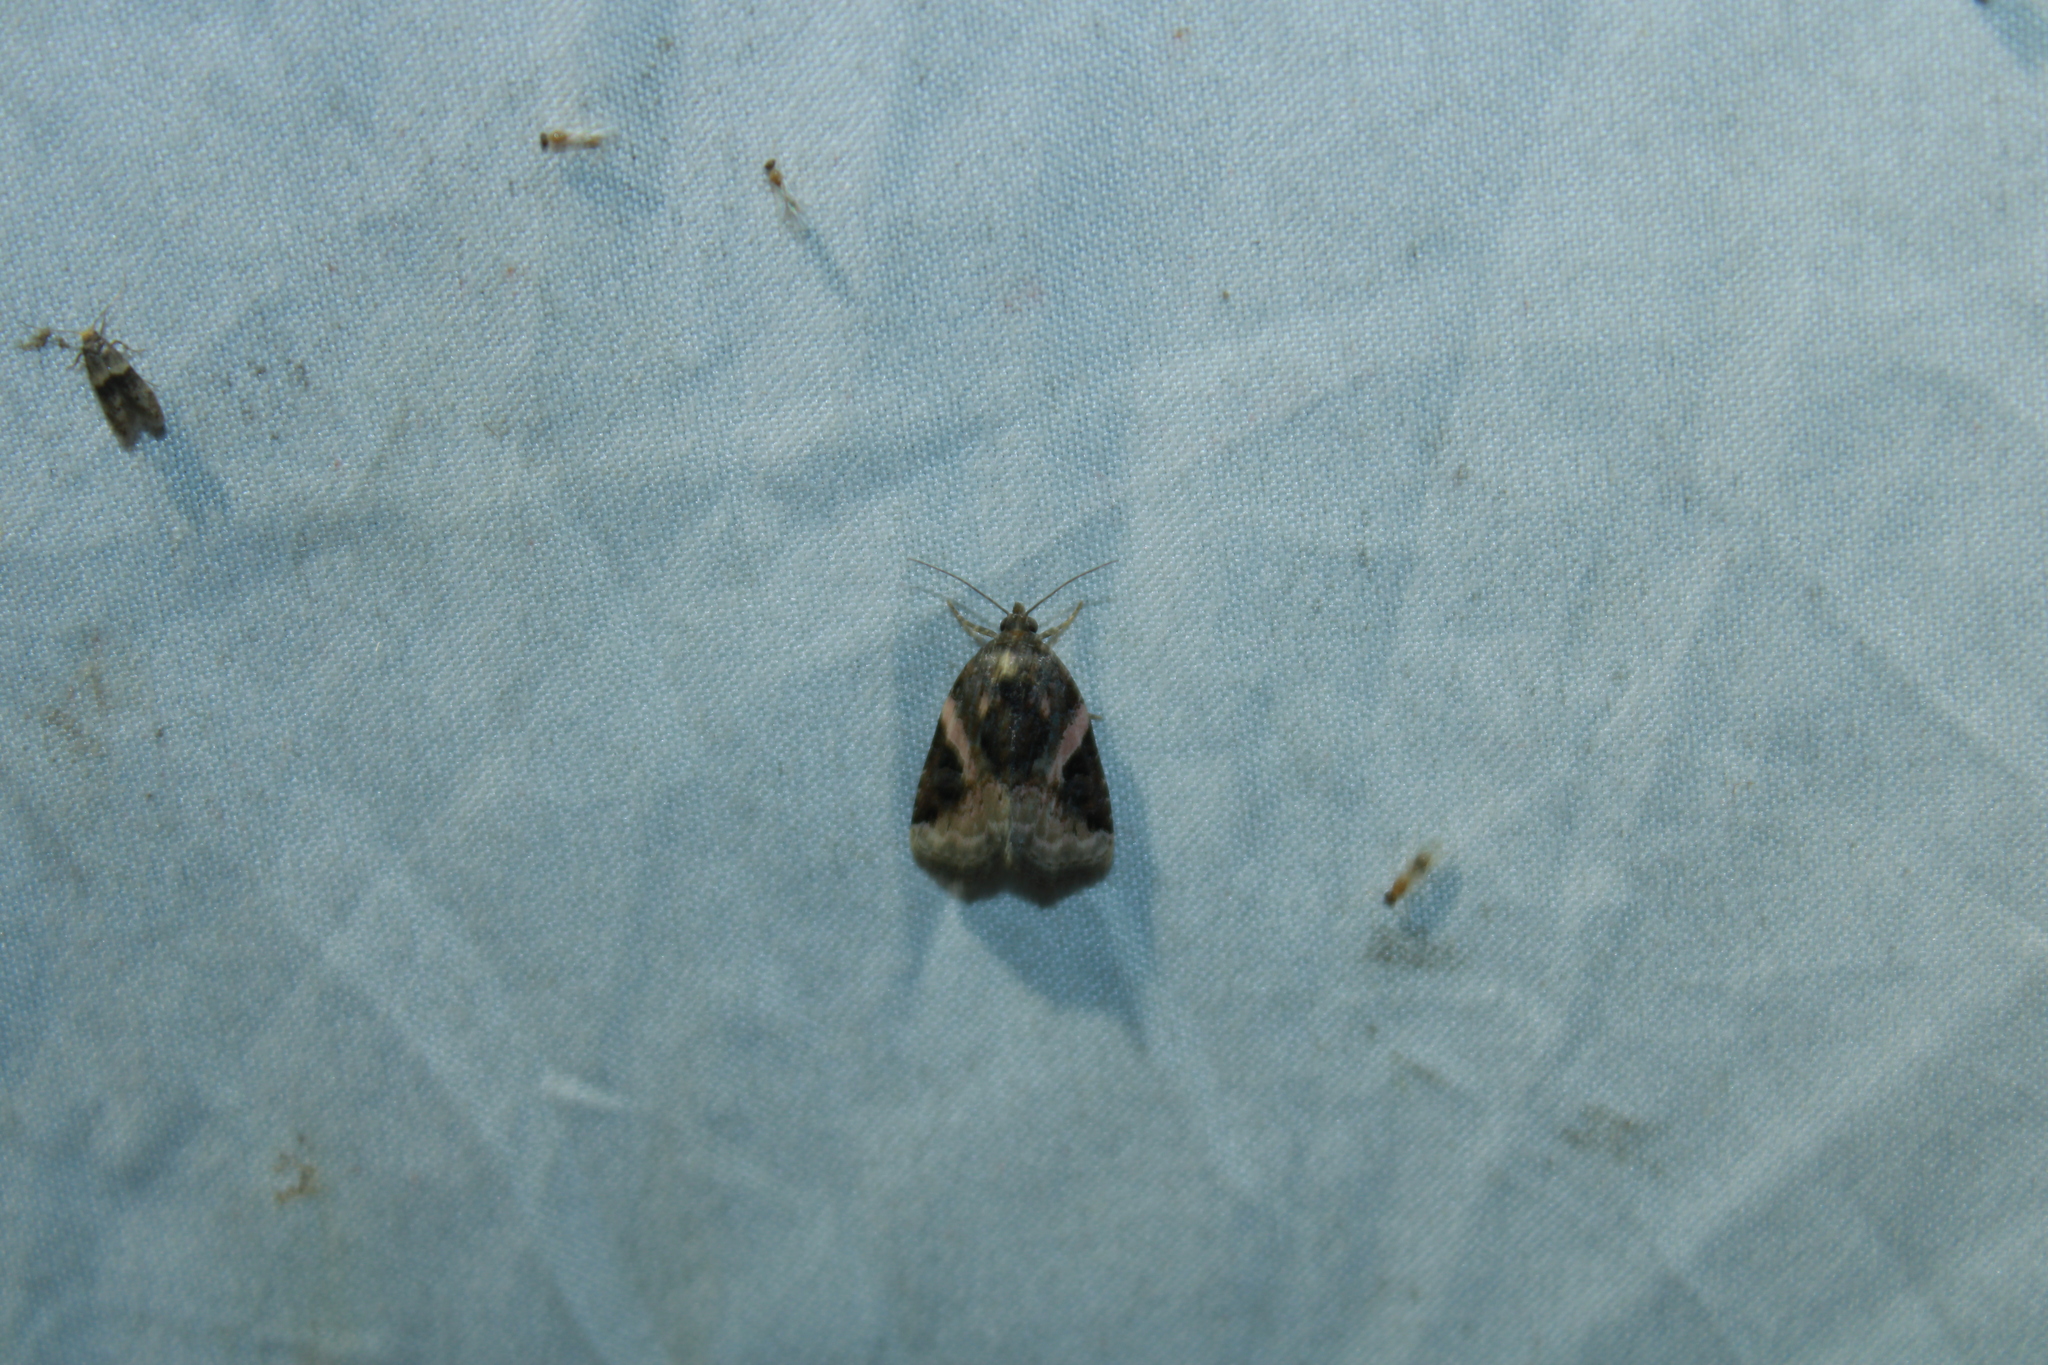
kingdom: Animalia
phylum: Arthropoda
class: Insecta
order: Lepidoptera
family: Noctuidae
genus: Pseudeustrotia
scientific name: Pseudeustrotia carneola
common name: Pink-barred lithacodia moth
